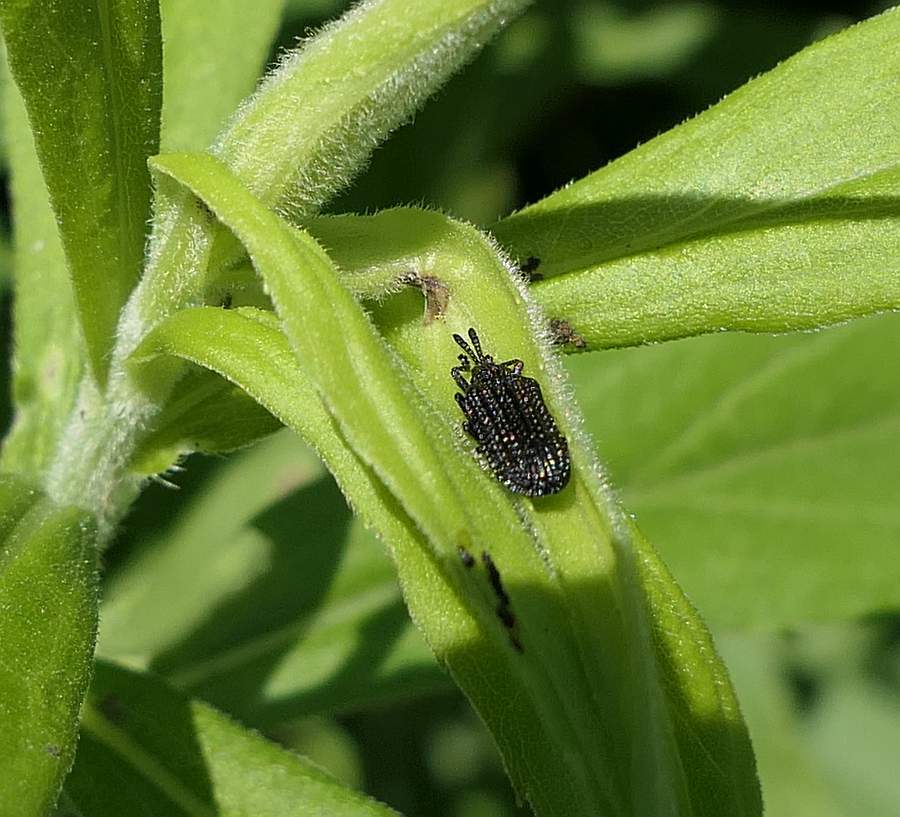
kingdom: Animalia
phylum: Arthropoda
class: Insecta
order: Coleoptera
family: Chrysomelidae
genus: Microrhopala
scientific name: Microrhopala excavata
